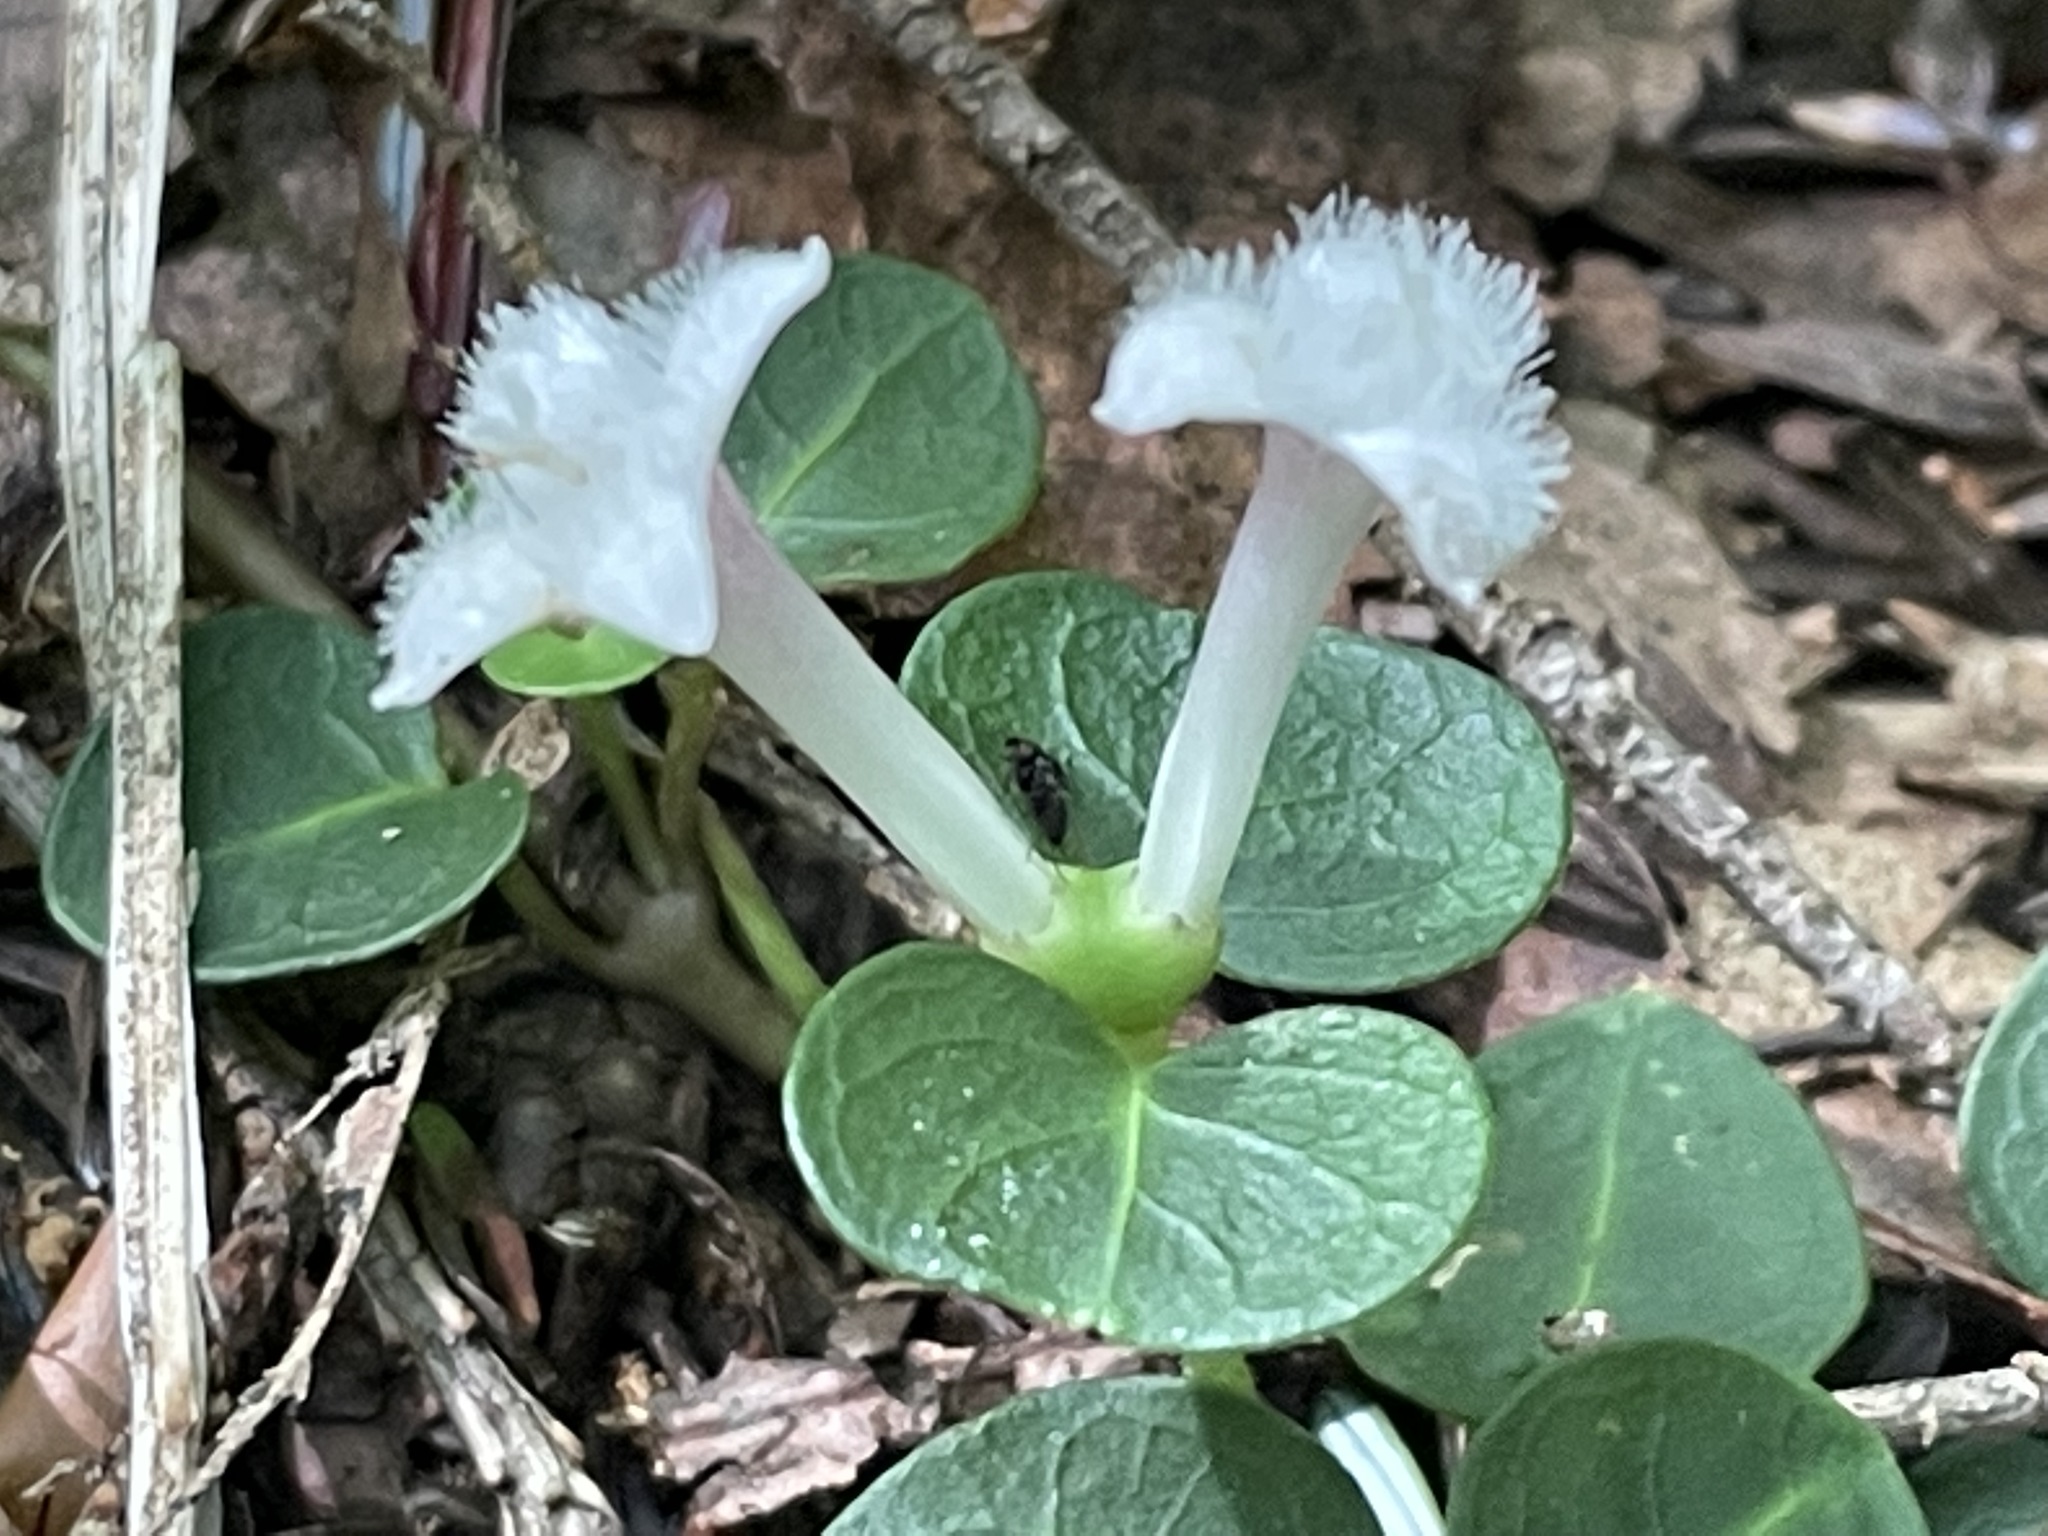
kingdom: Plantae
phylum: Tracheophyta
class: Magnoliopsida
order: Gentianales
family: Rubiaceae
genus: Mitchella
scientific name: Mitchella repens
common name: Partridge-berry
